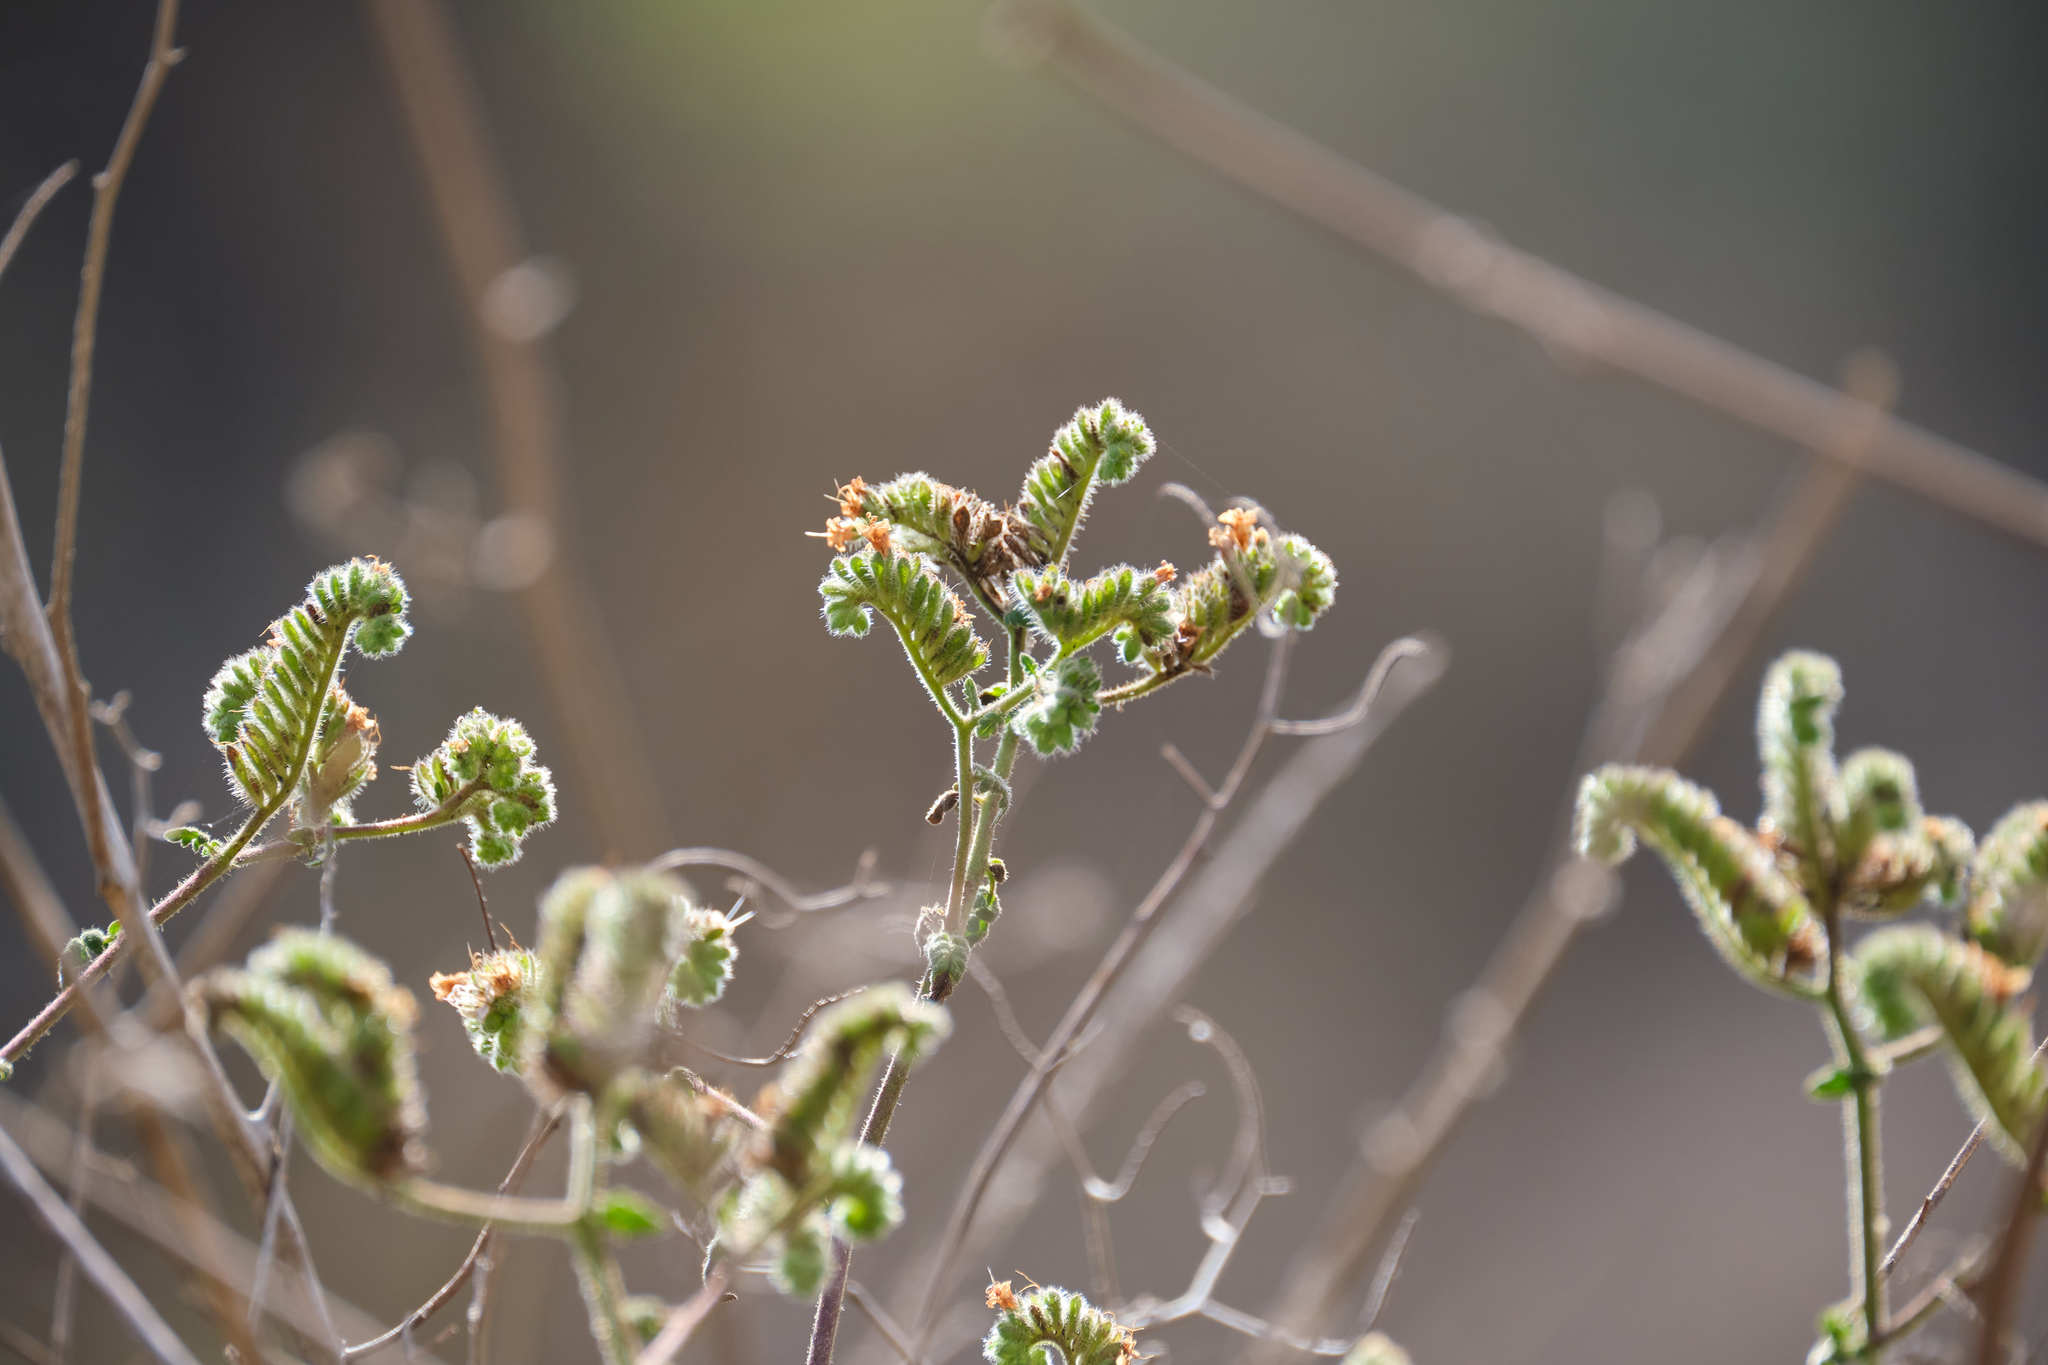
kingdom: Plantae
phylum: Tracheophyta
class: Magnoliopsida
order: Boraginales
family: Hydrophyllaceae
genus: Phacelia
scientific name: Phacelia ramosissima
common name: Branching phacelia
